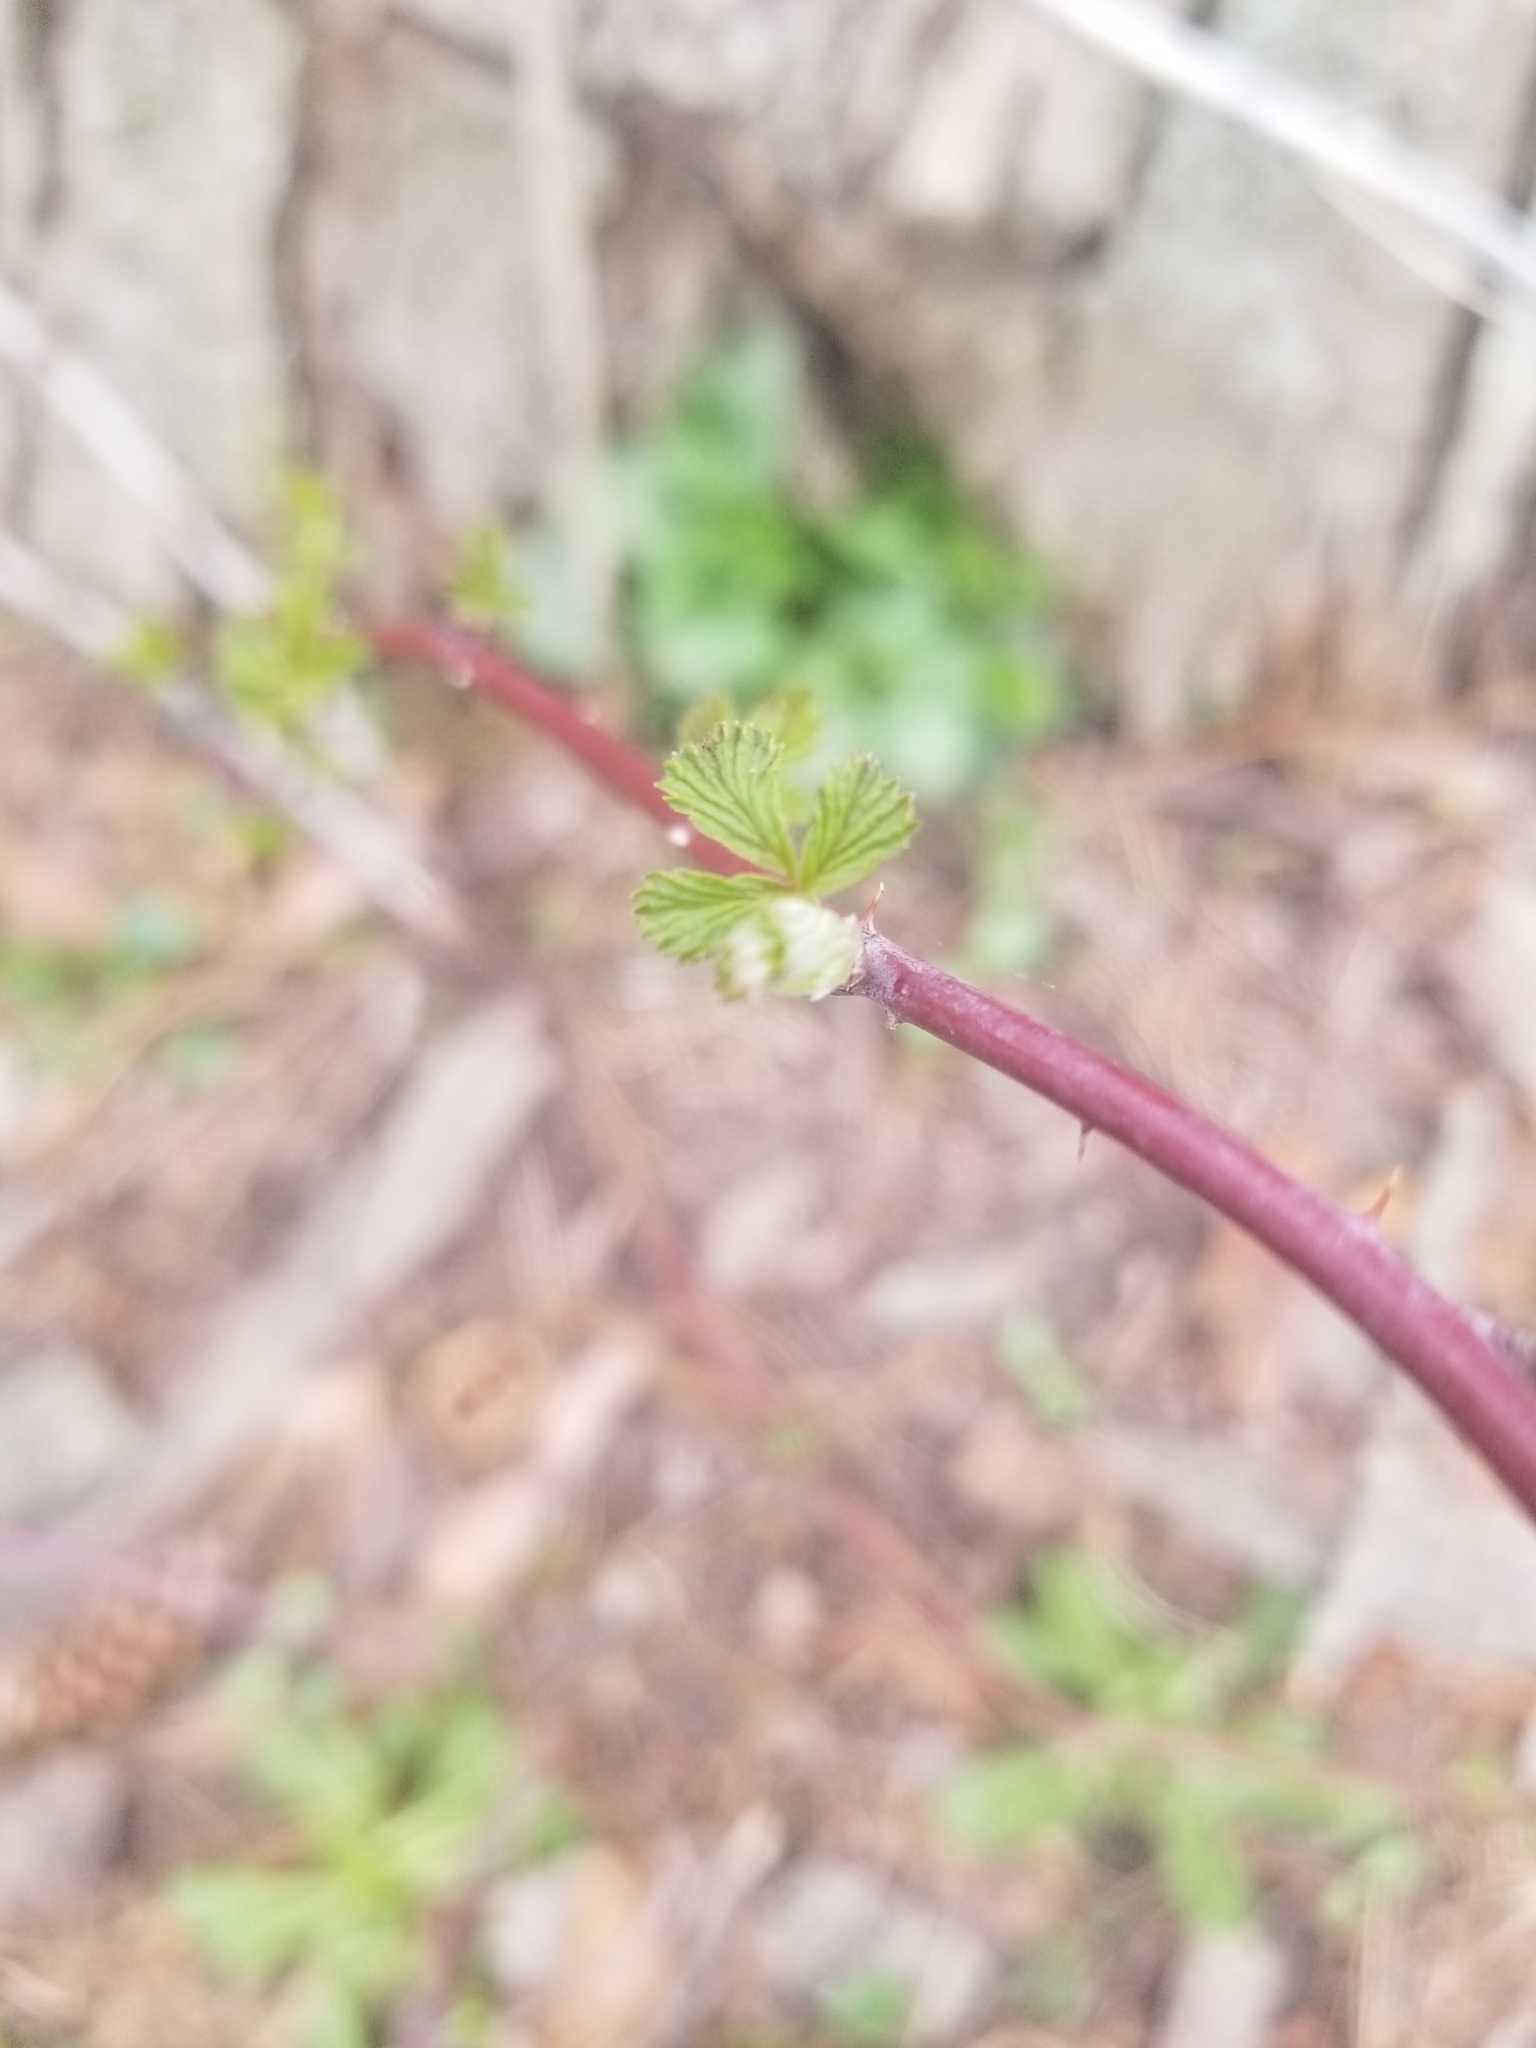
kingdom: Plantae
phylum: Tracheophyta
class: Magnoliopsida
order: Rosales
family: Rosaceae
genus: Rubus
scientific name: Rubus occidentalis
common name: Black raspberry
